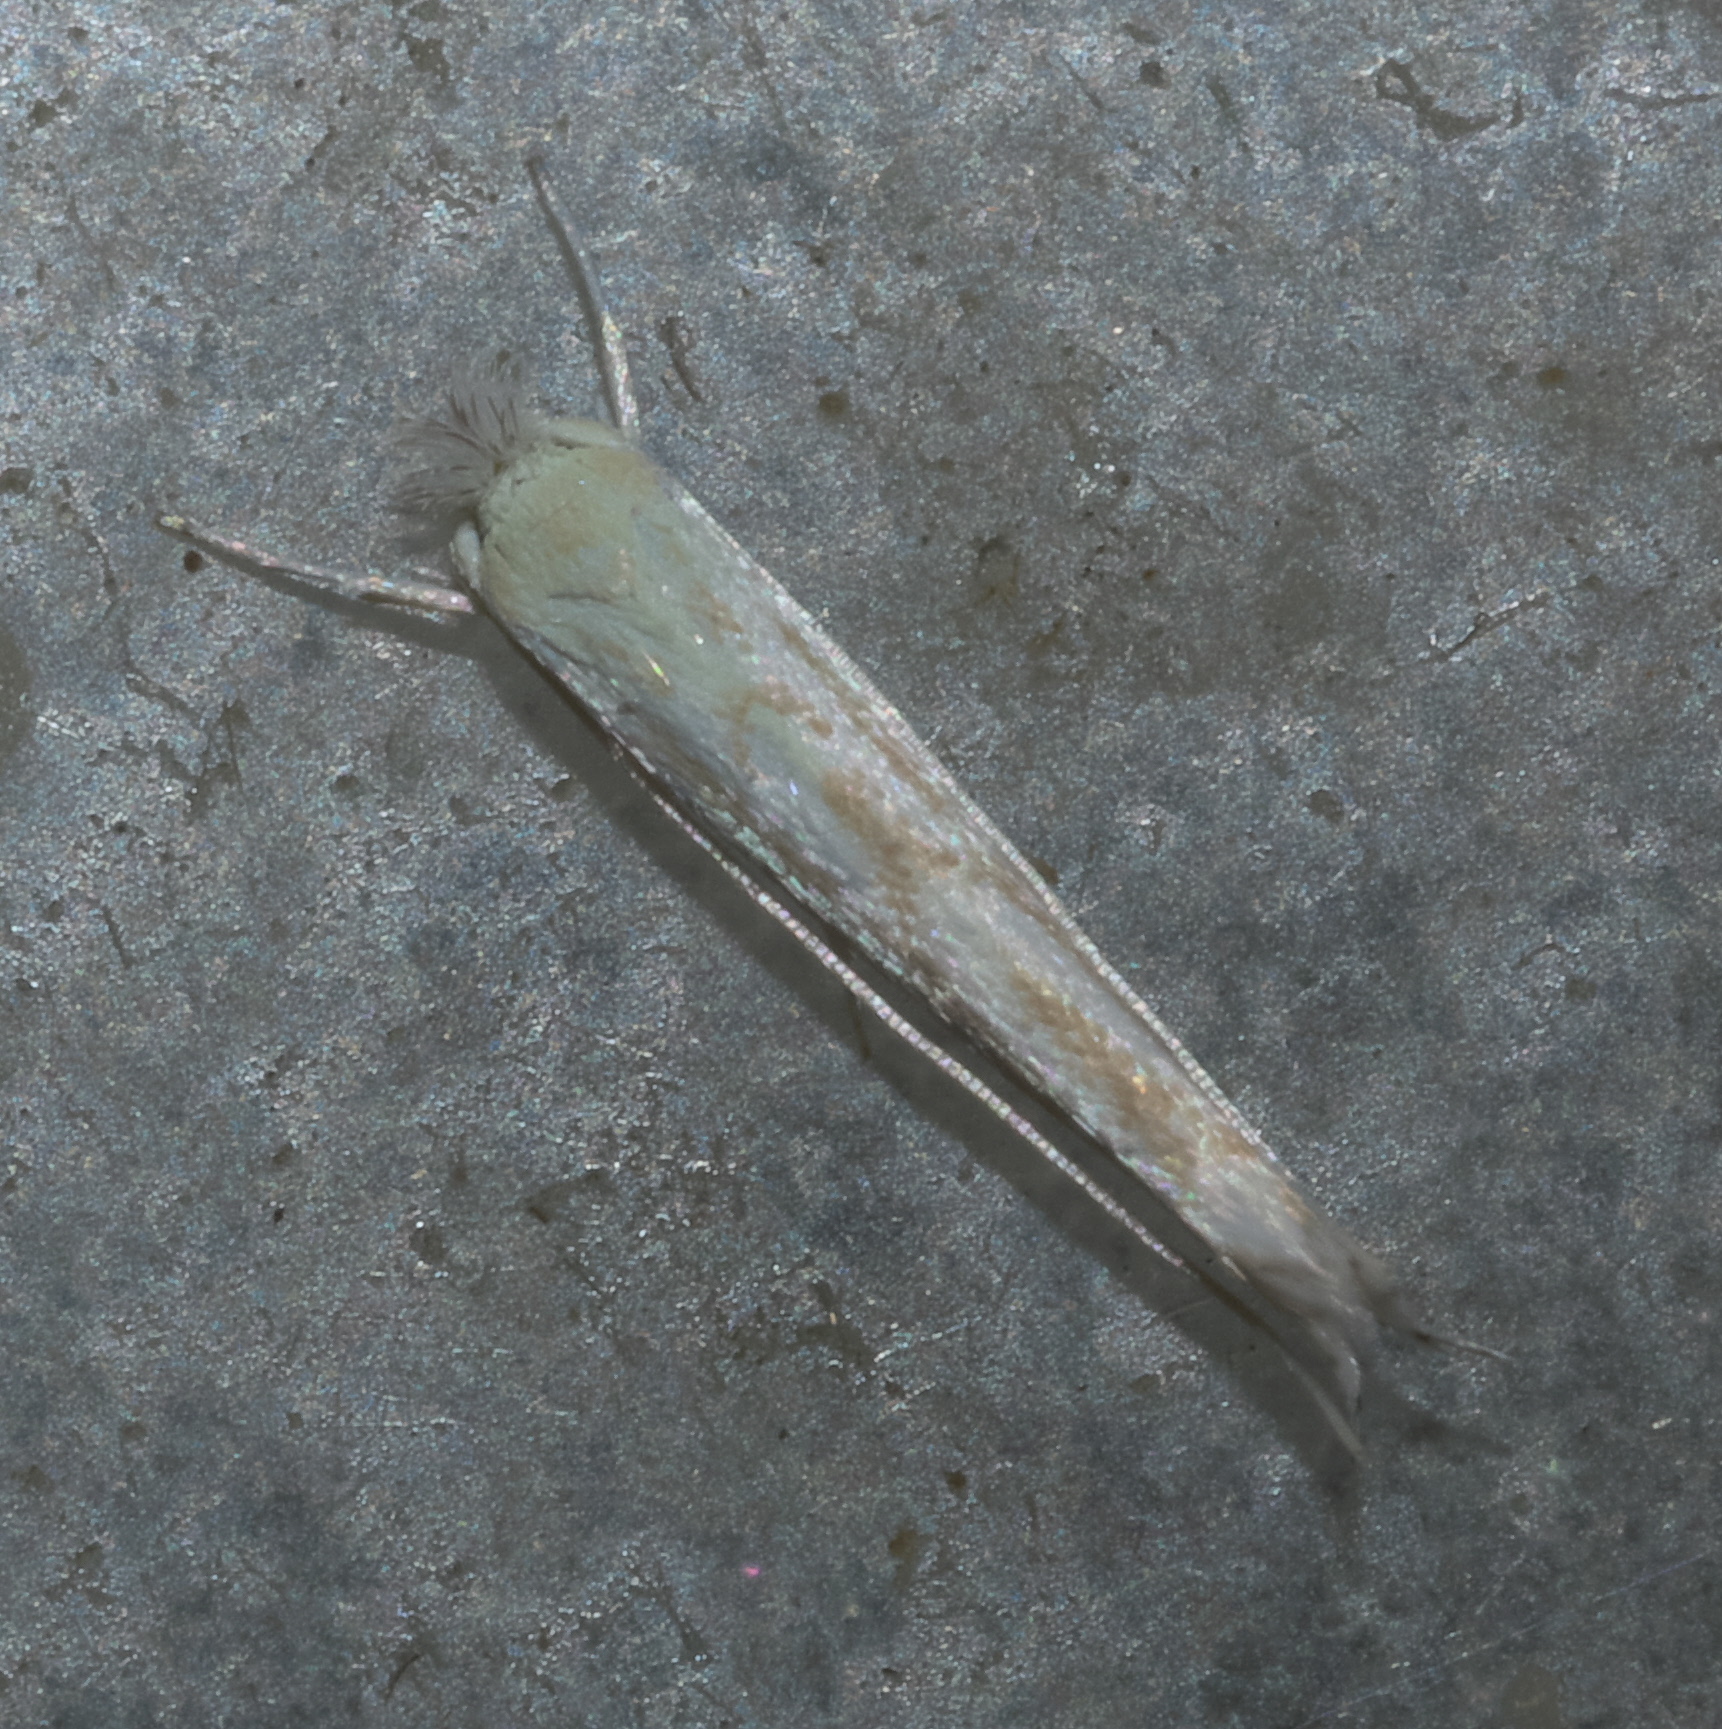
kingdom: Animalia
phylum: Arthropoda
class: Insecta
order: Lepidoptera
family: Lyonetiidae
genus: Stegommata
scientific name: Stegommata sulfuratella
